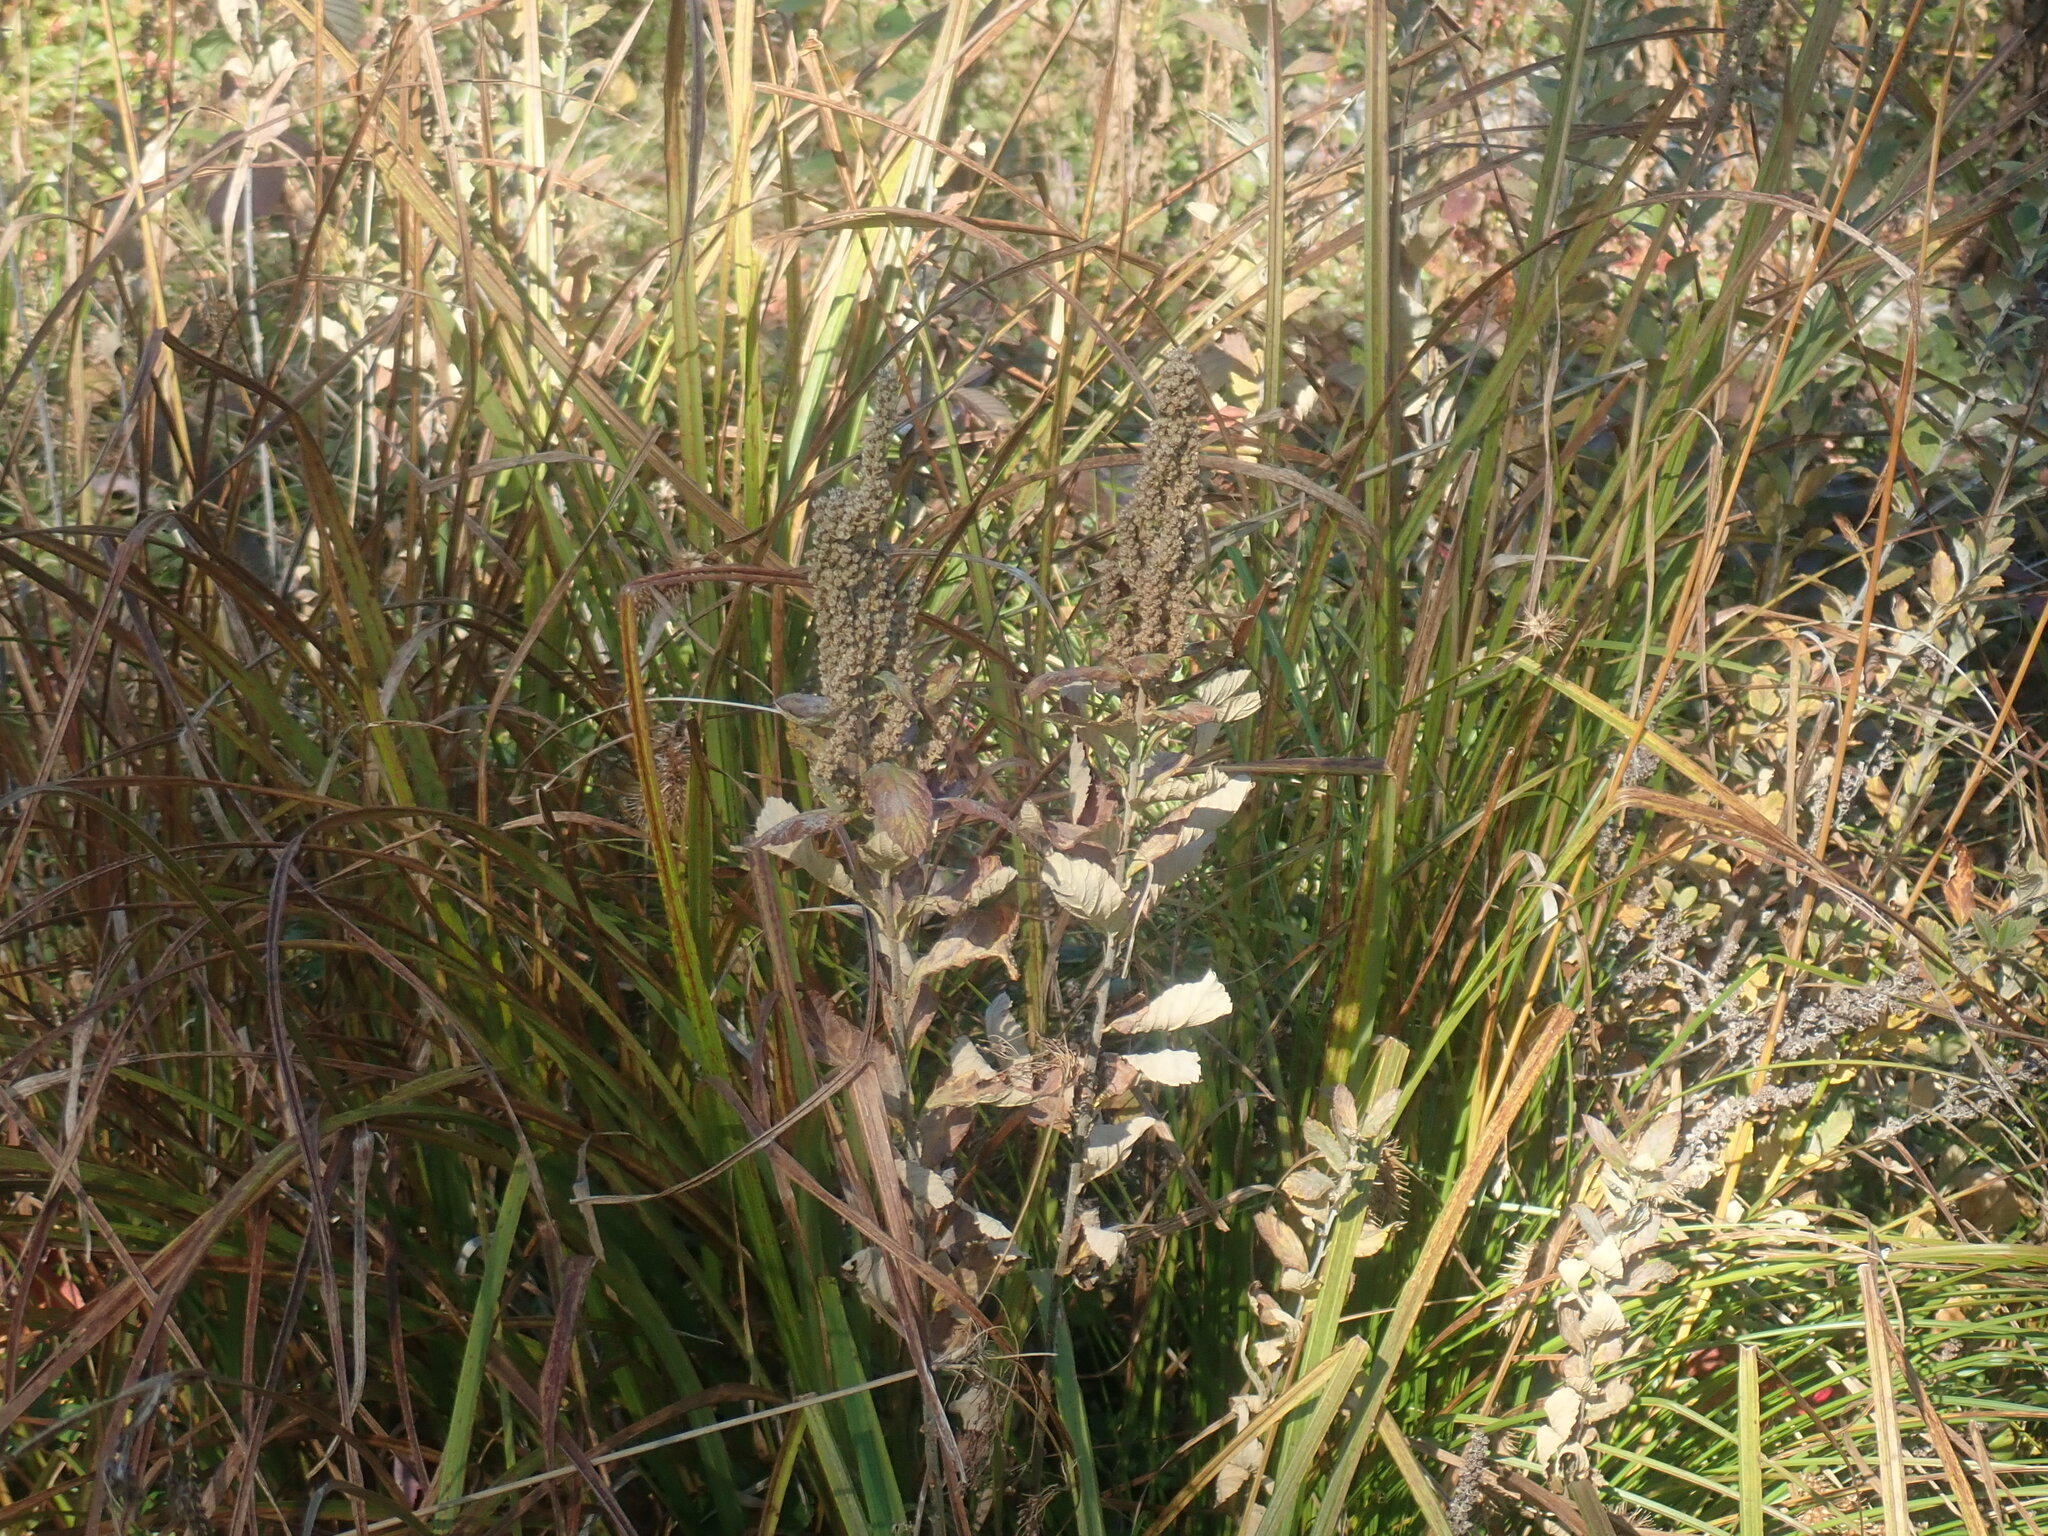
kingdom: Plantae
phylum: Tracheophyta
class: Magnoliopsida
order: Rosales
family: Rosaceae
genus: Spiraea
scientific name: Spiraea tomentosa
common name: Hardhack
